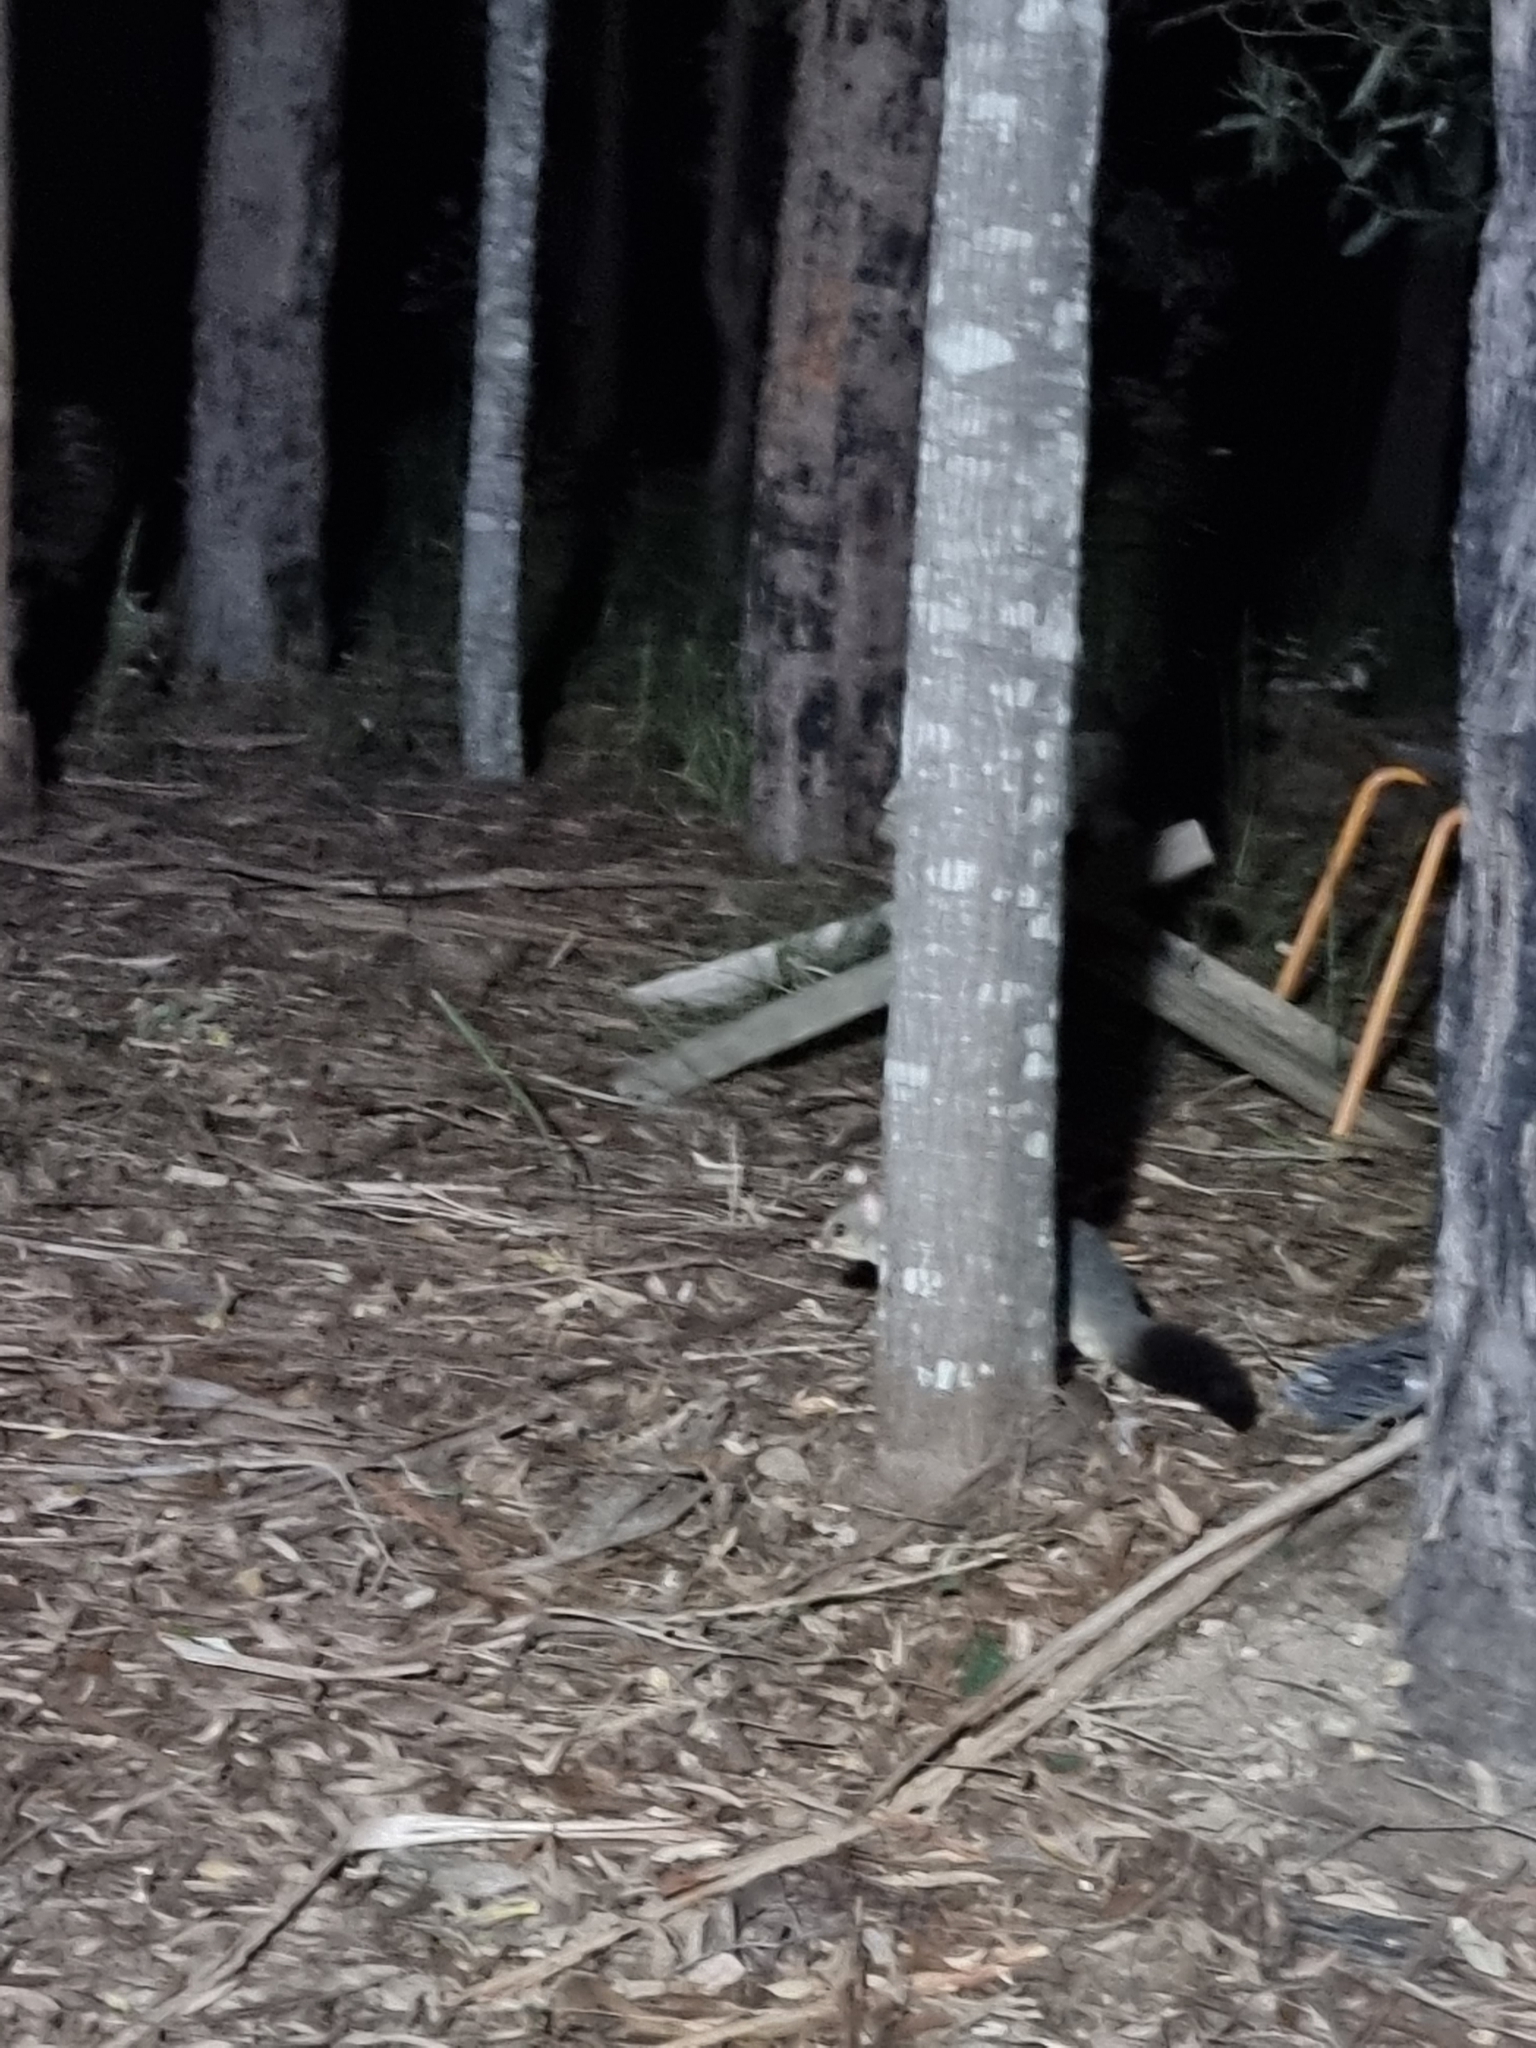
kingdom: Animalia
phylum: Chordata
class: Mammalia
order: Diprotodontia
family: Phalangeridae
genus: Trichosurus
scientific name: Trichosurus vulpecula
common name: Common brushtail
